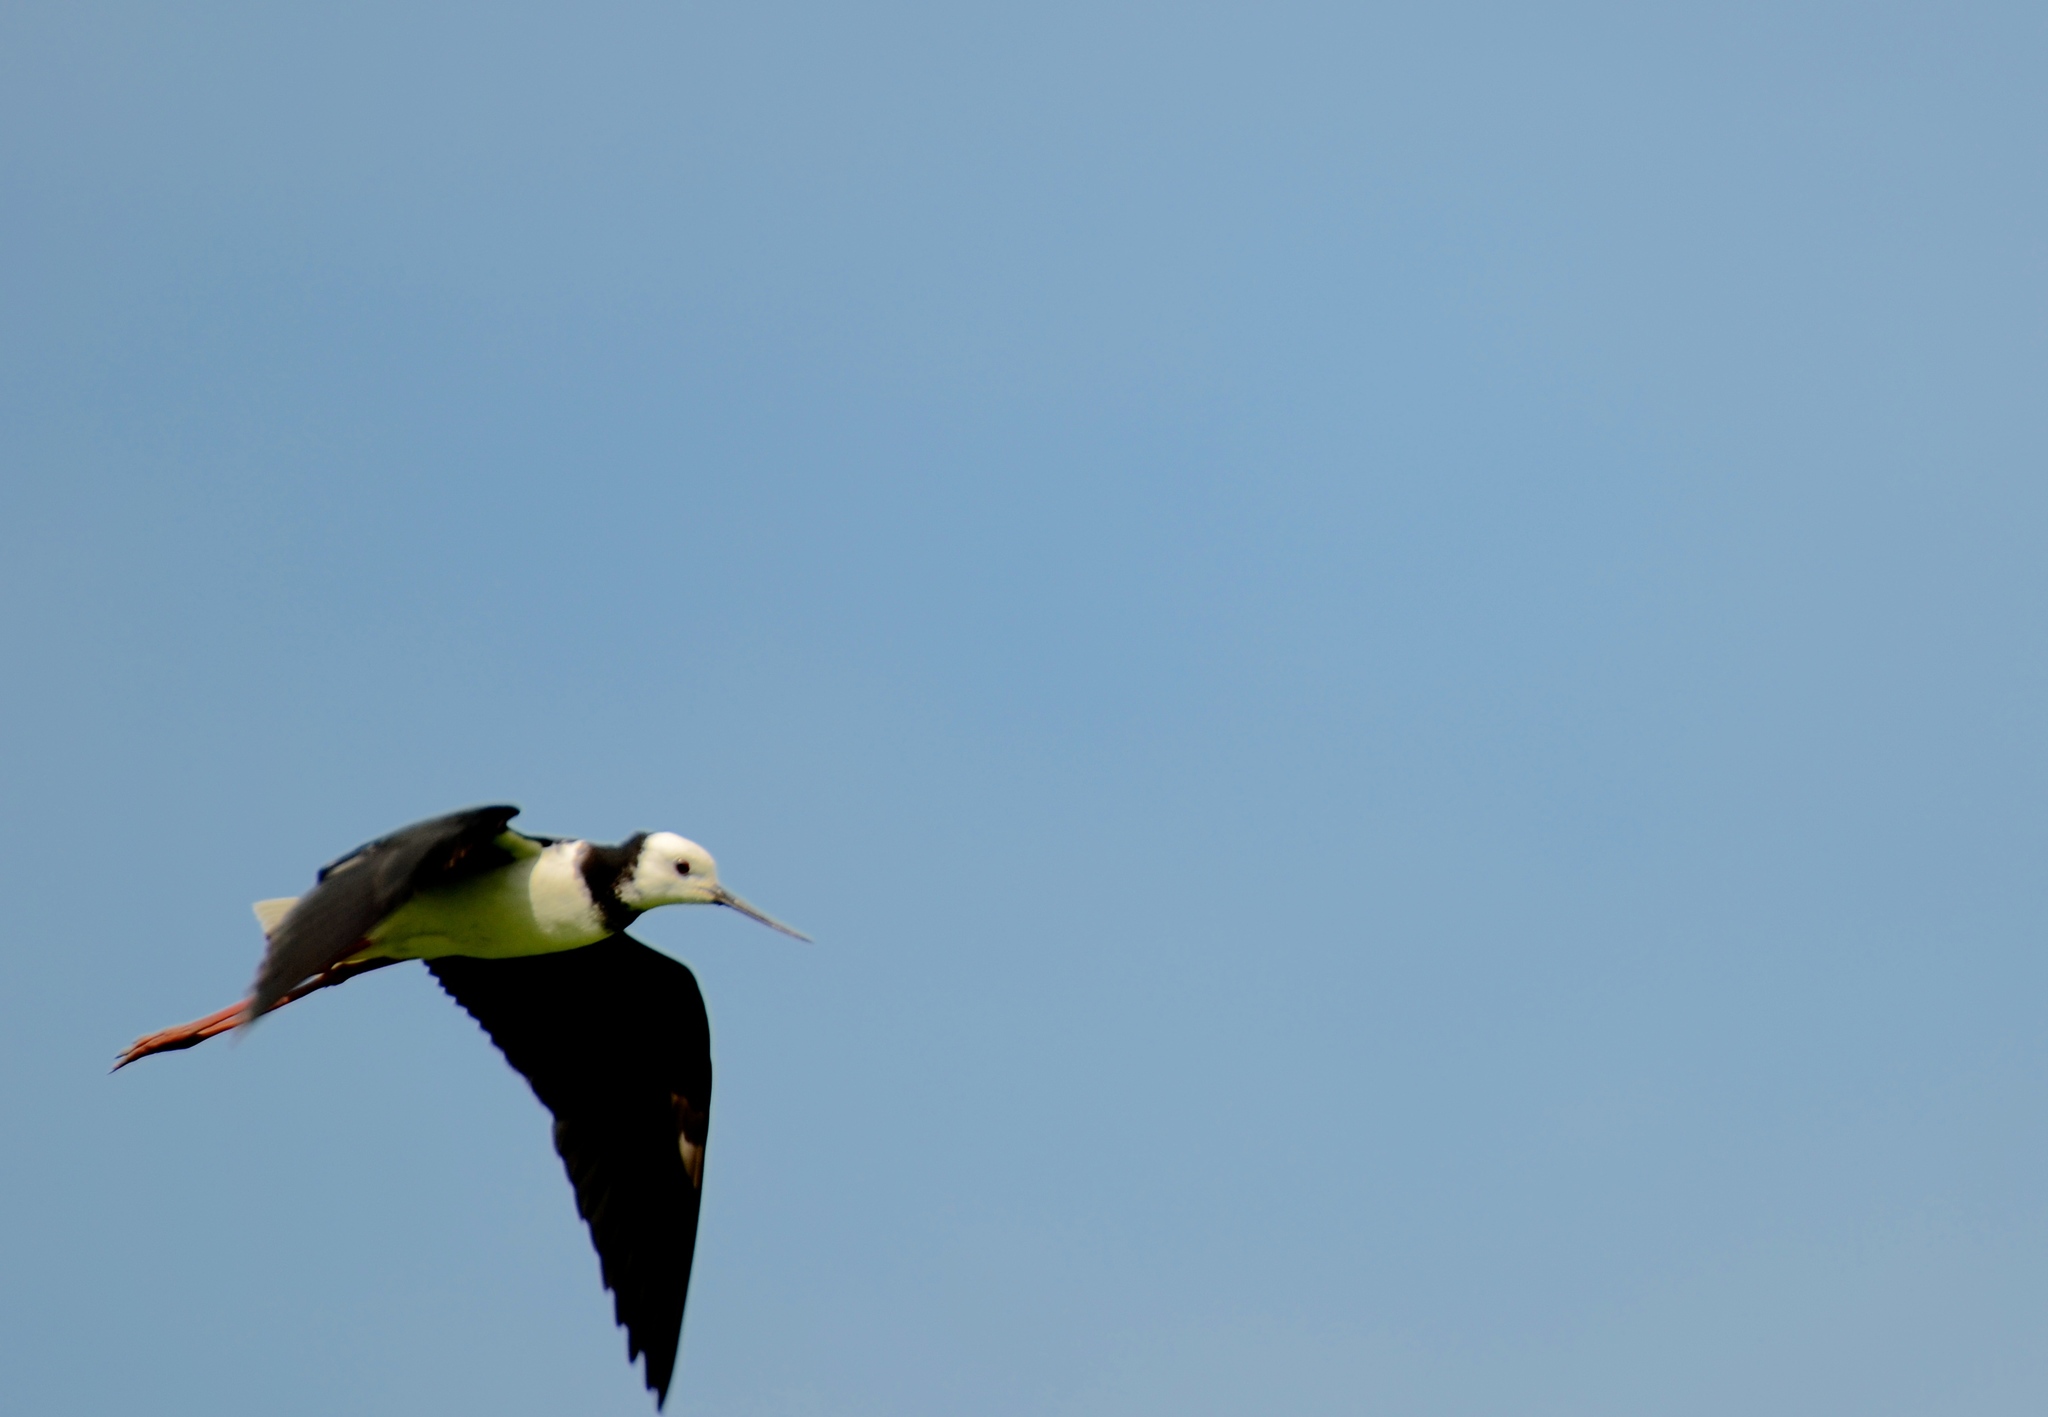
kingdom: Animalia
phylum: Chordata
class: Aves
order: Charadriiformes
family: Recurvirostridae
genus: Himantopus
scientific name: Himantopus leucocephalus
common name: White-headed stilt
